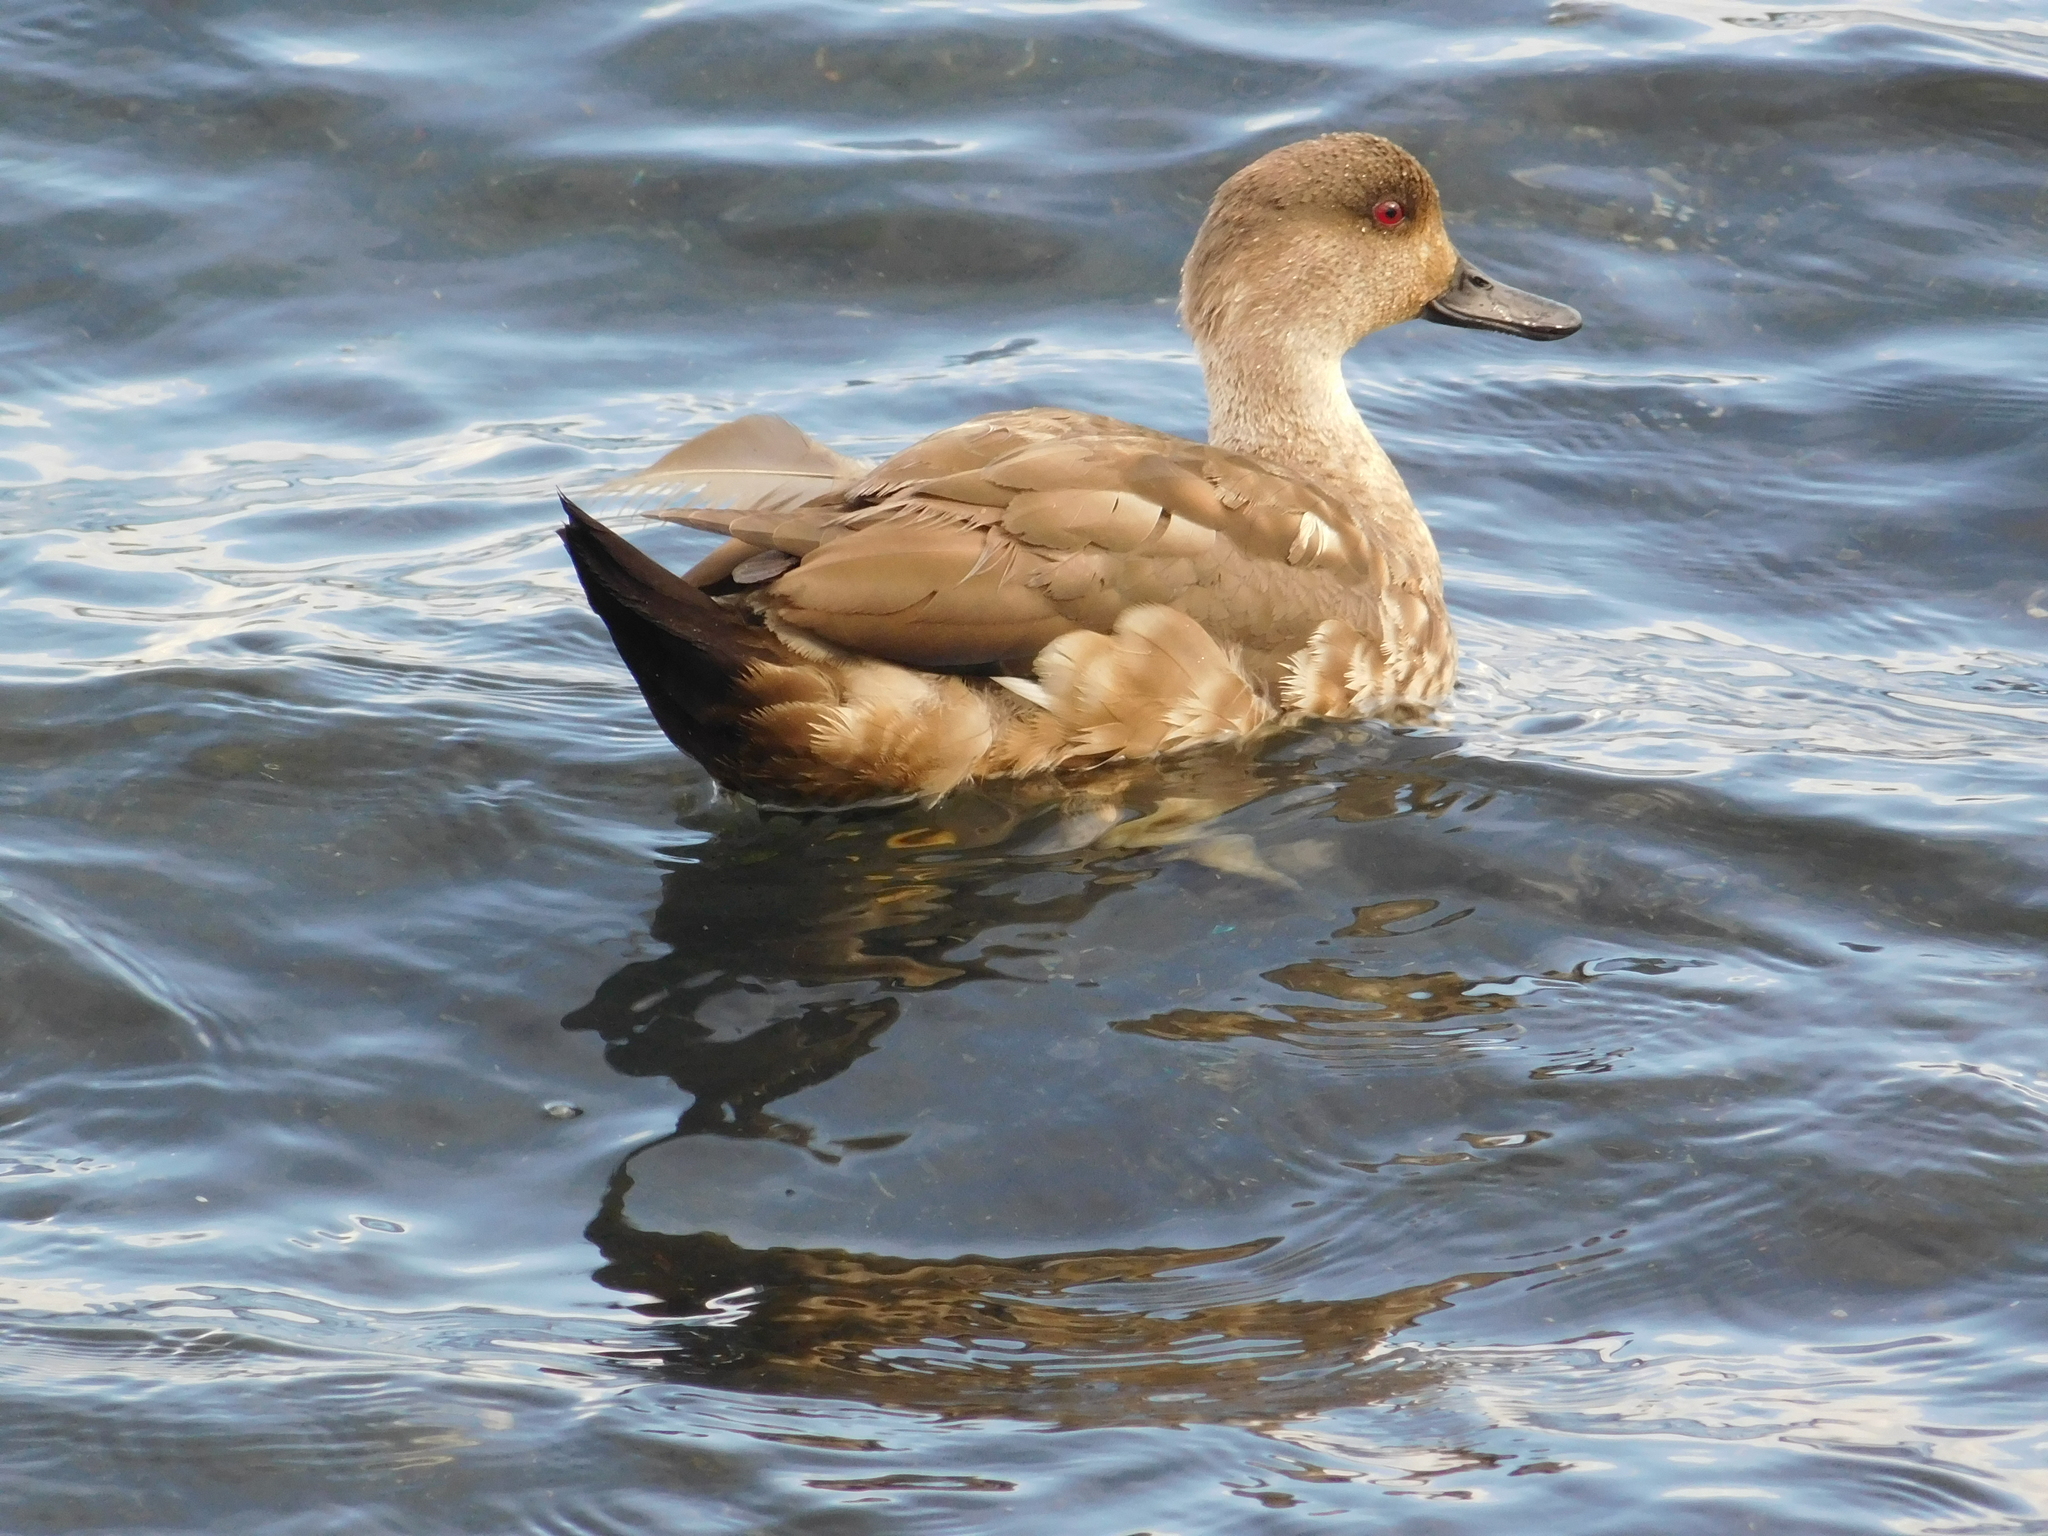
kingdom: Animalia
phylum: Chordata
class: Aves
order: Anseriformes
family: Anatidae
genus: Lophonetta
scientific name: Lophonetta specularioides
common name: Crested duck
